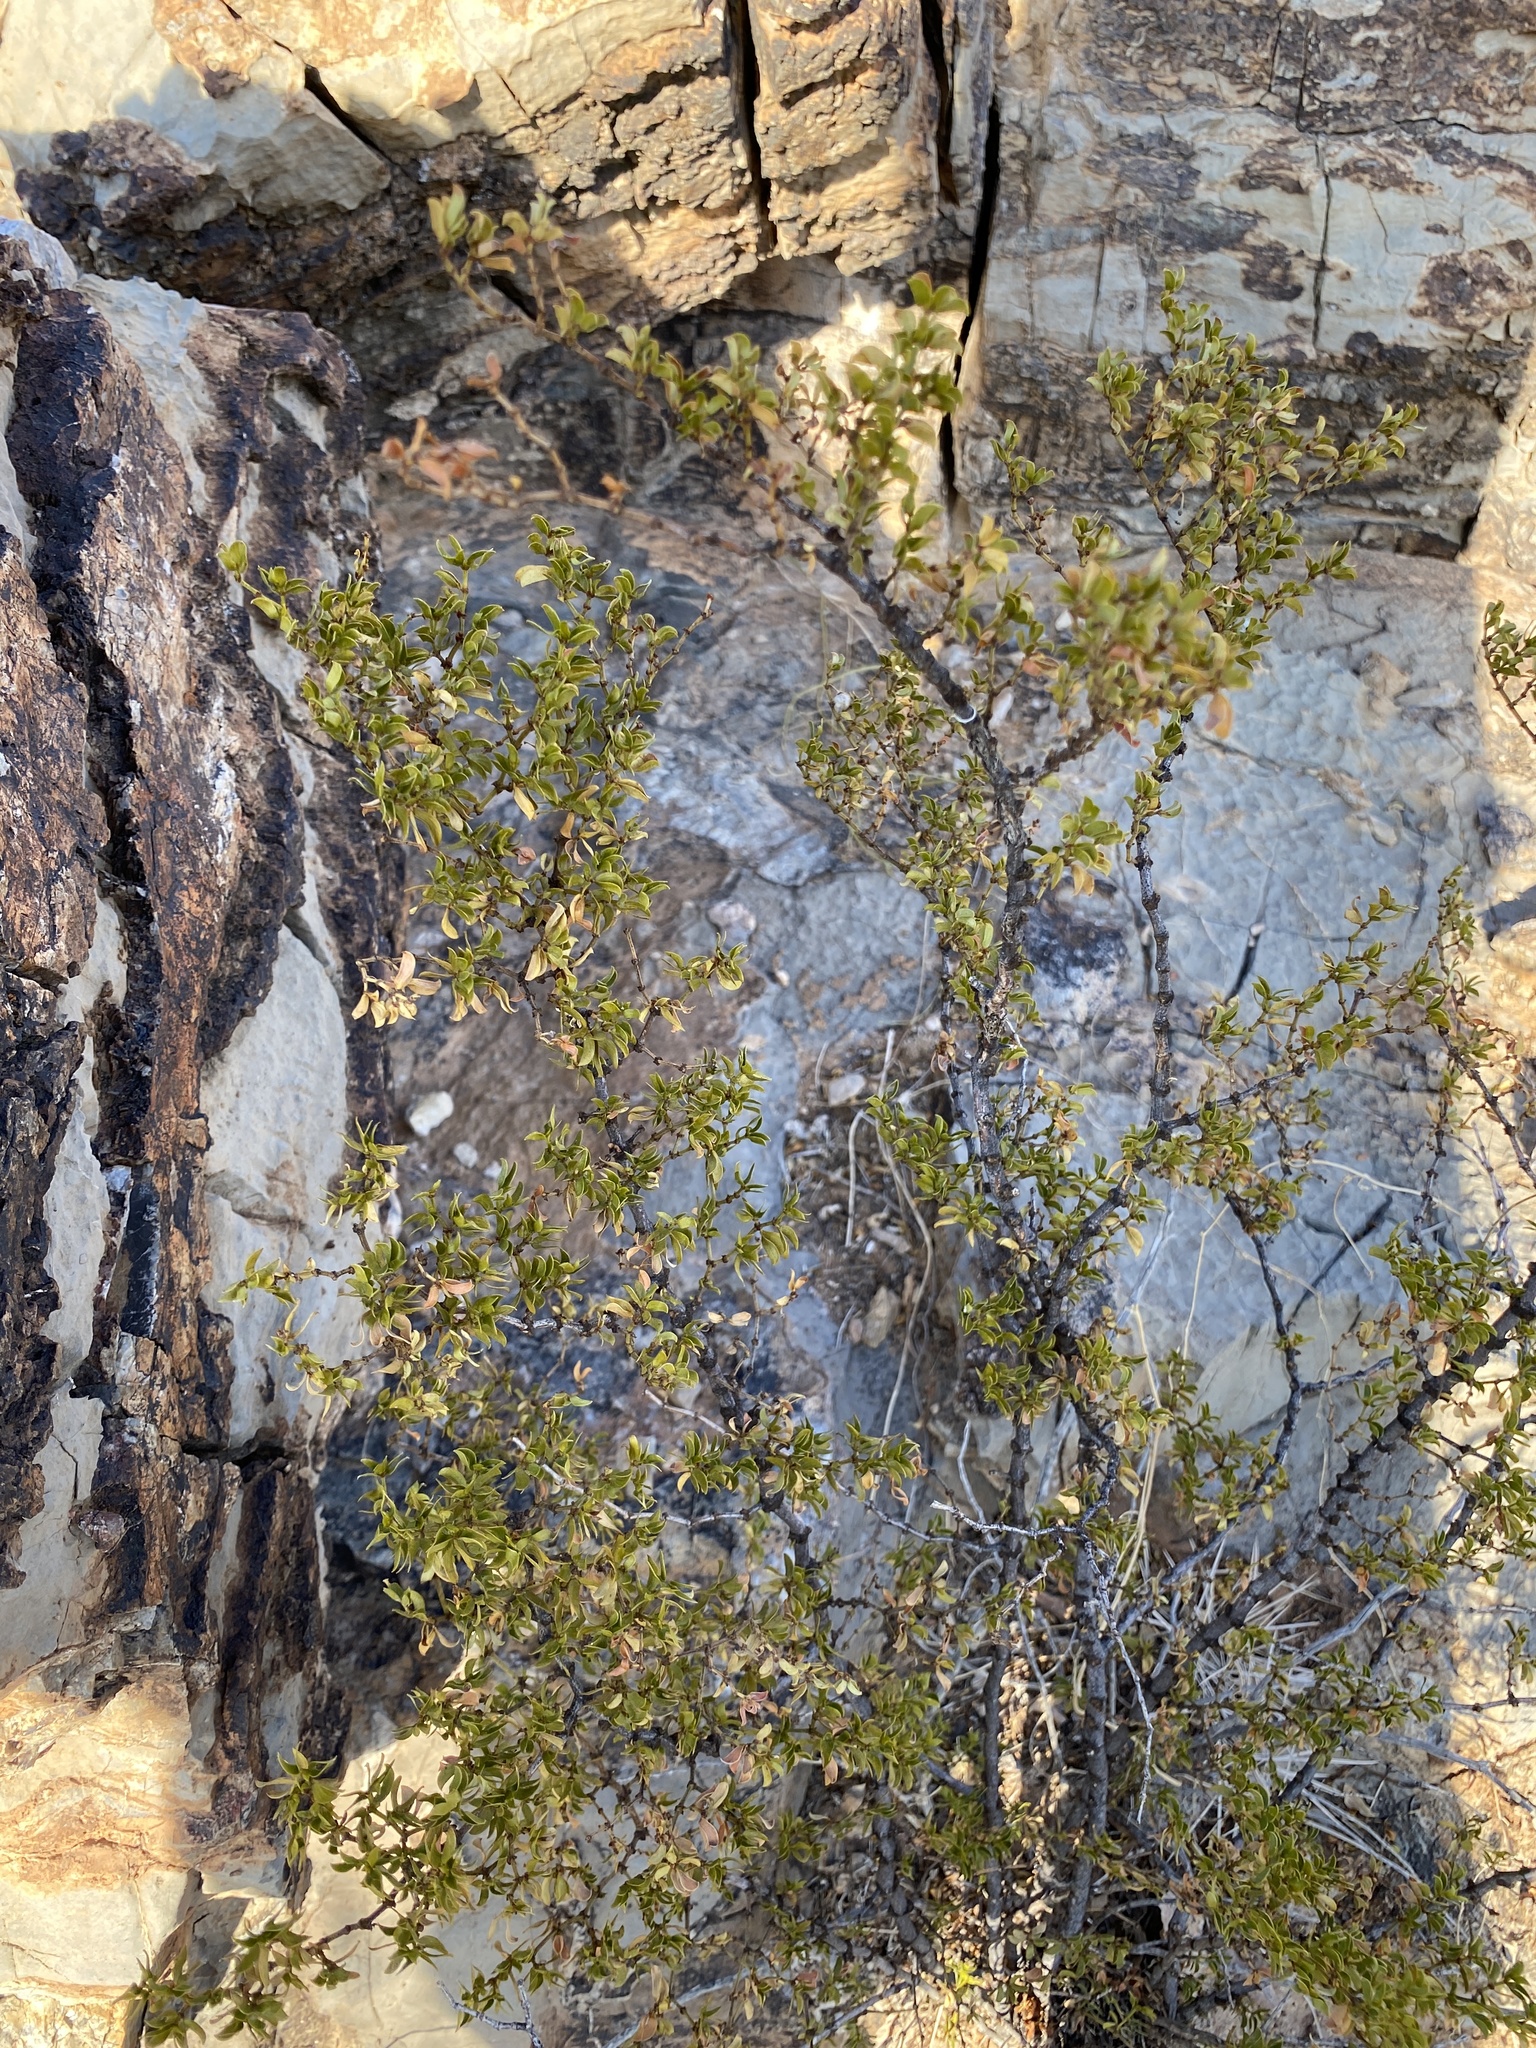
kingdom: Plantae
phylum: Tracheophyta
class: Magnoliopsida
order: Zygophyllales
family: Zygophyllaceae
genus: Larrea
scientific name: Larrea tridentata
